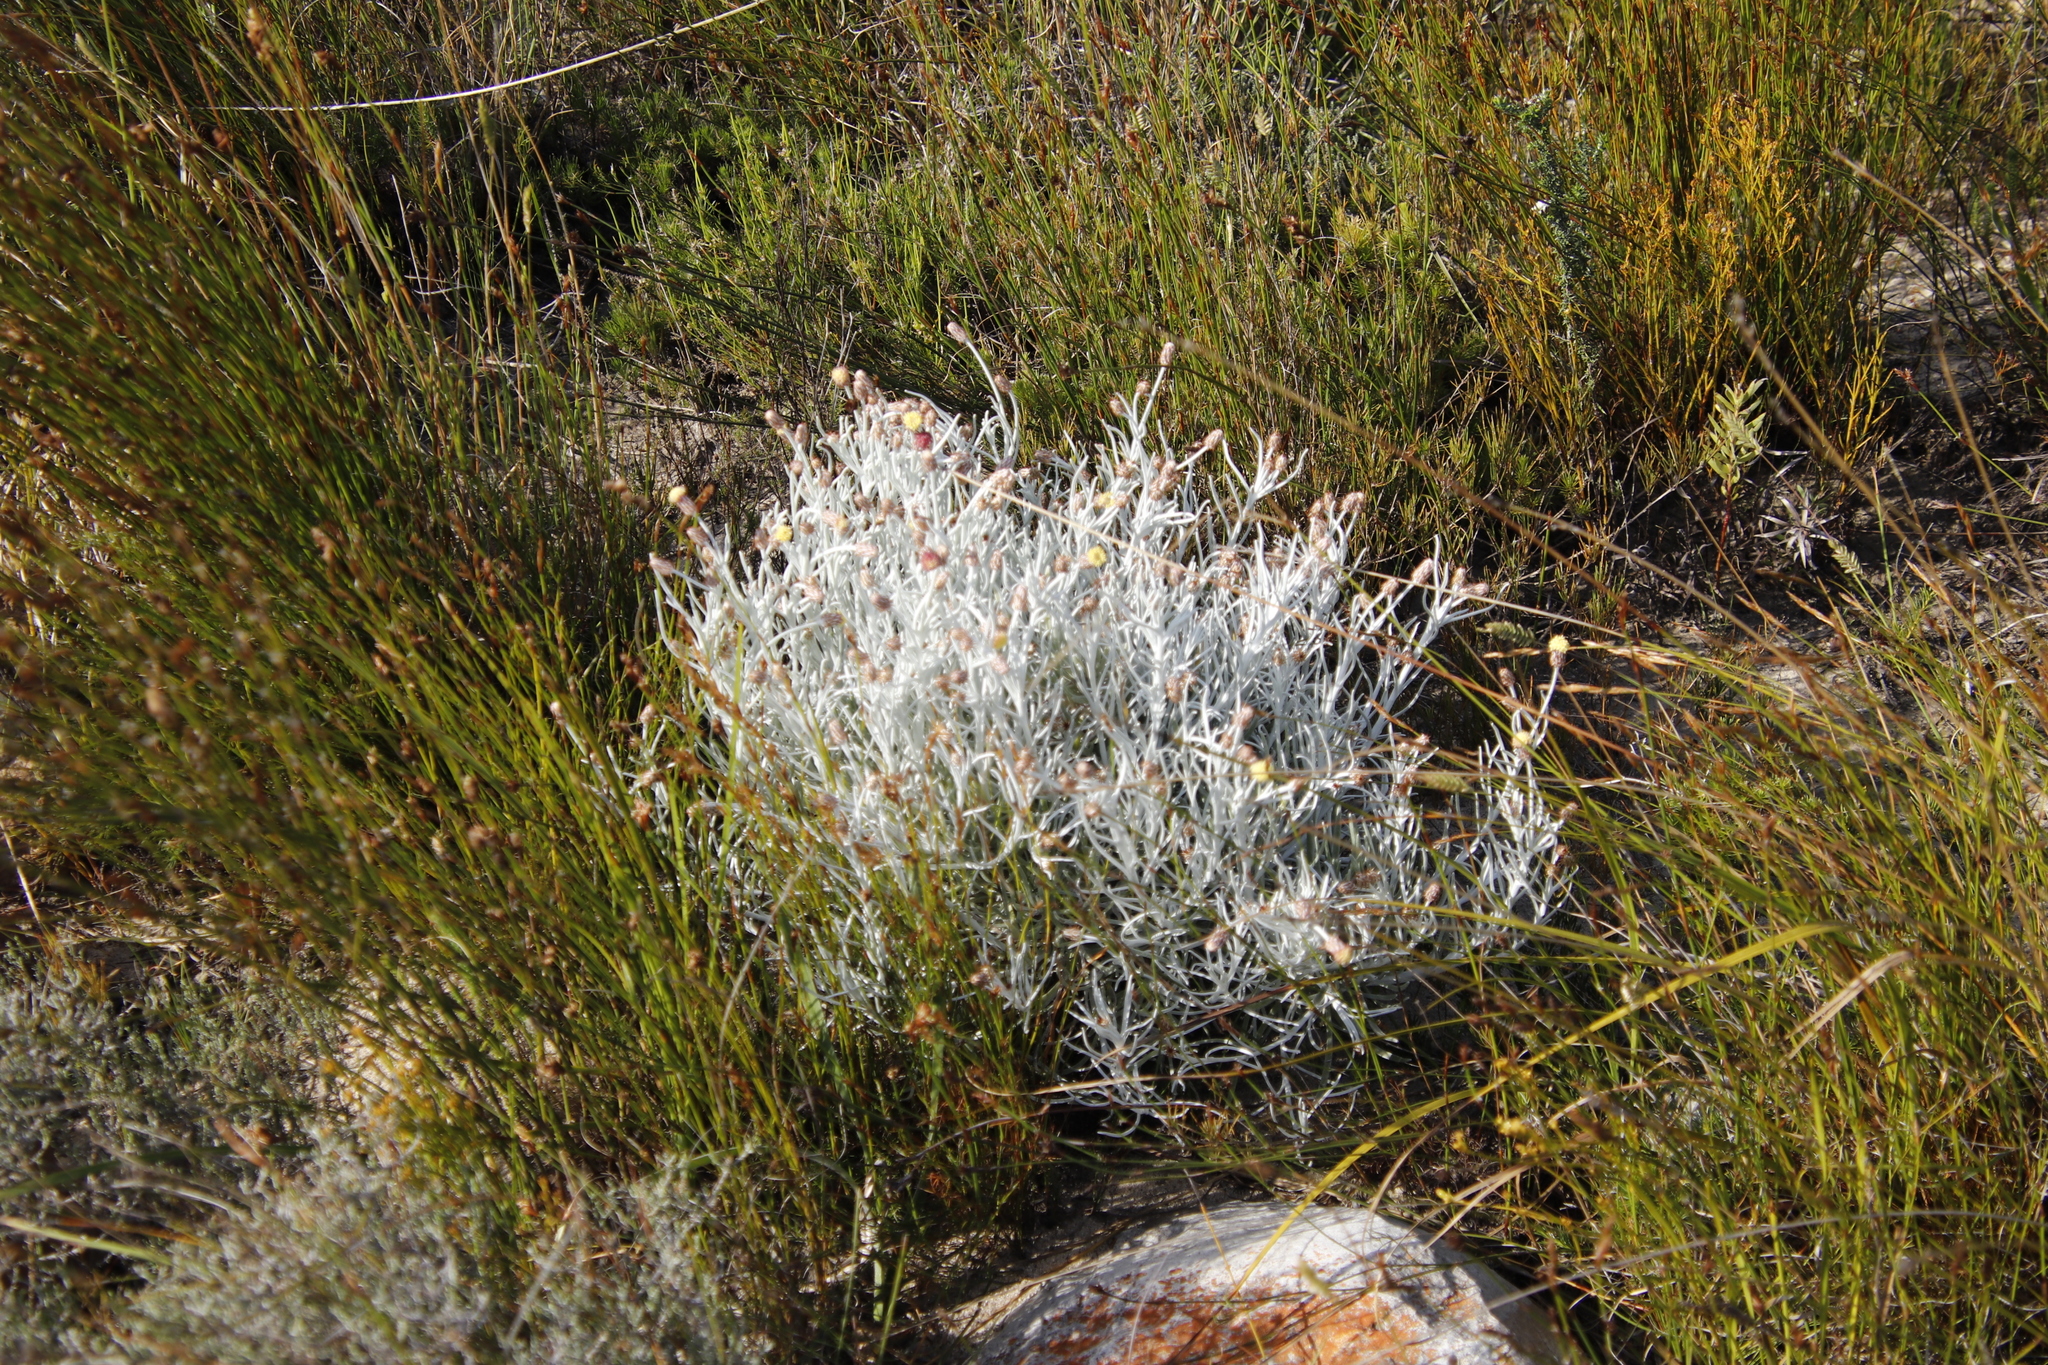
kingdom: Plantae
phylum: Tracheophyta
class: Magnoliopsida
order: Asterales
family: Asteraceae
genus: Syncarpha
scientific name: Syncarpha gnaphaloides
